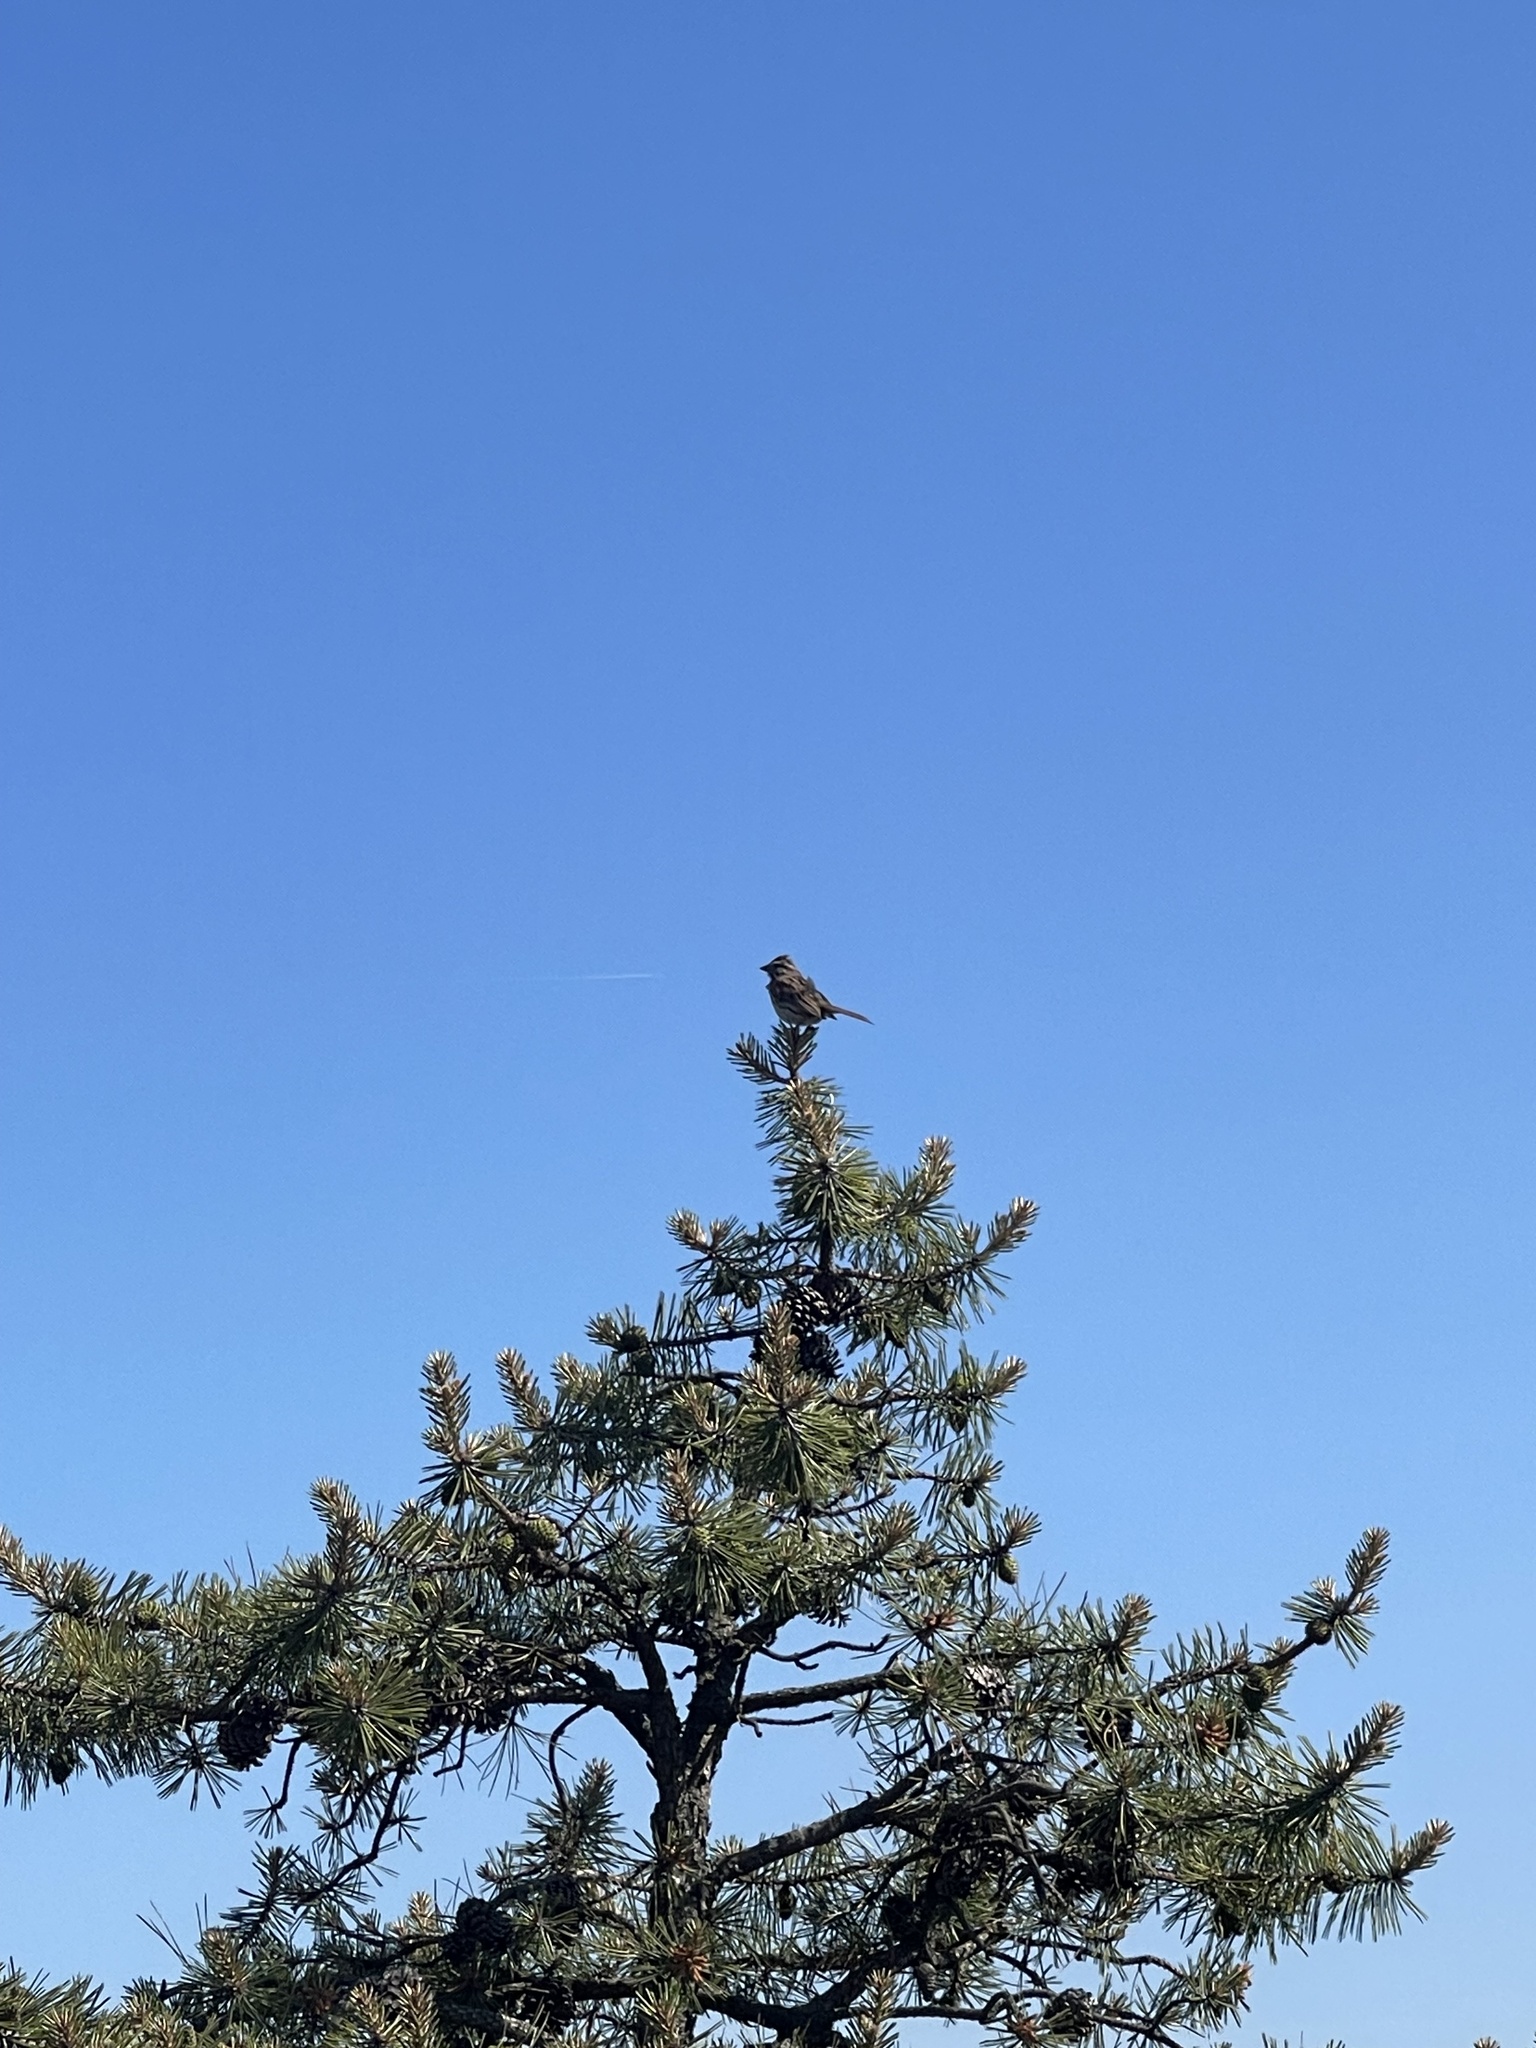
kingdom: Animalia
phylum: Chordata
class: Aves
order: Passeriformes
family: Passerellidae
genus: Melospiza
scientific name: Melospiza melodia
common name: Song sparrow
